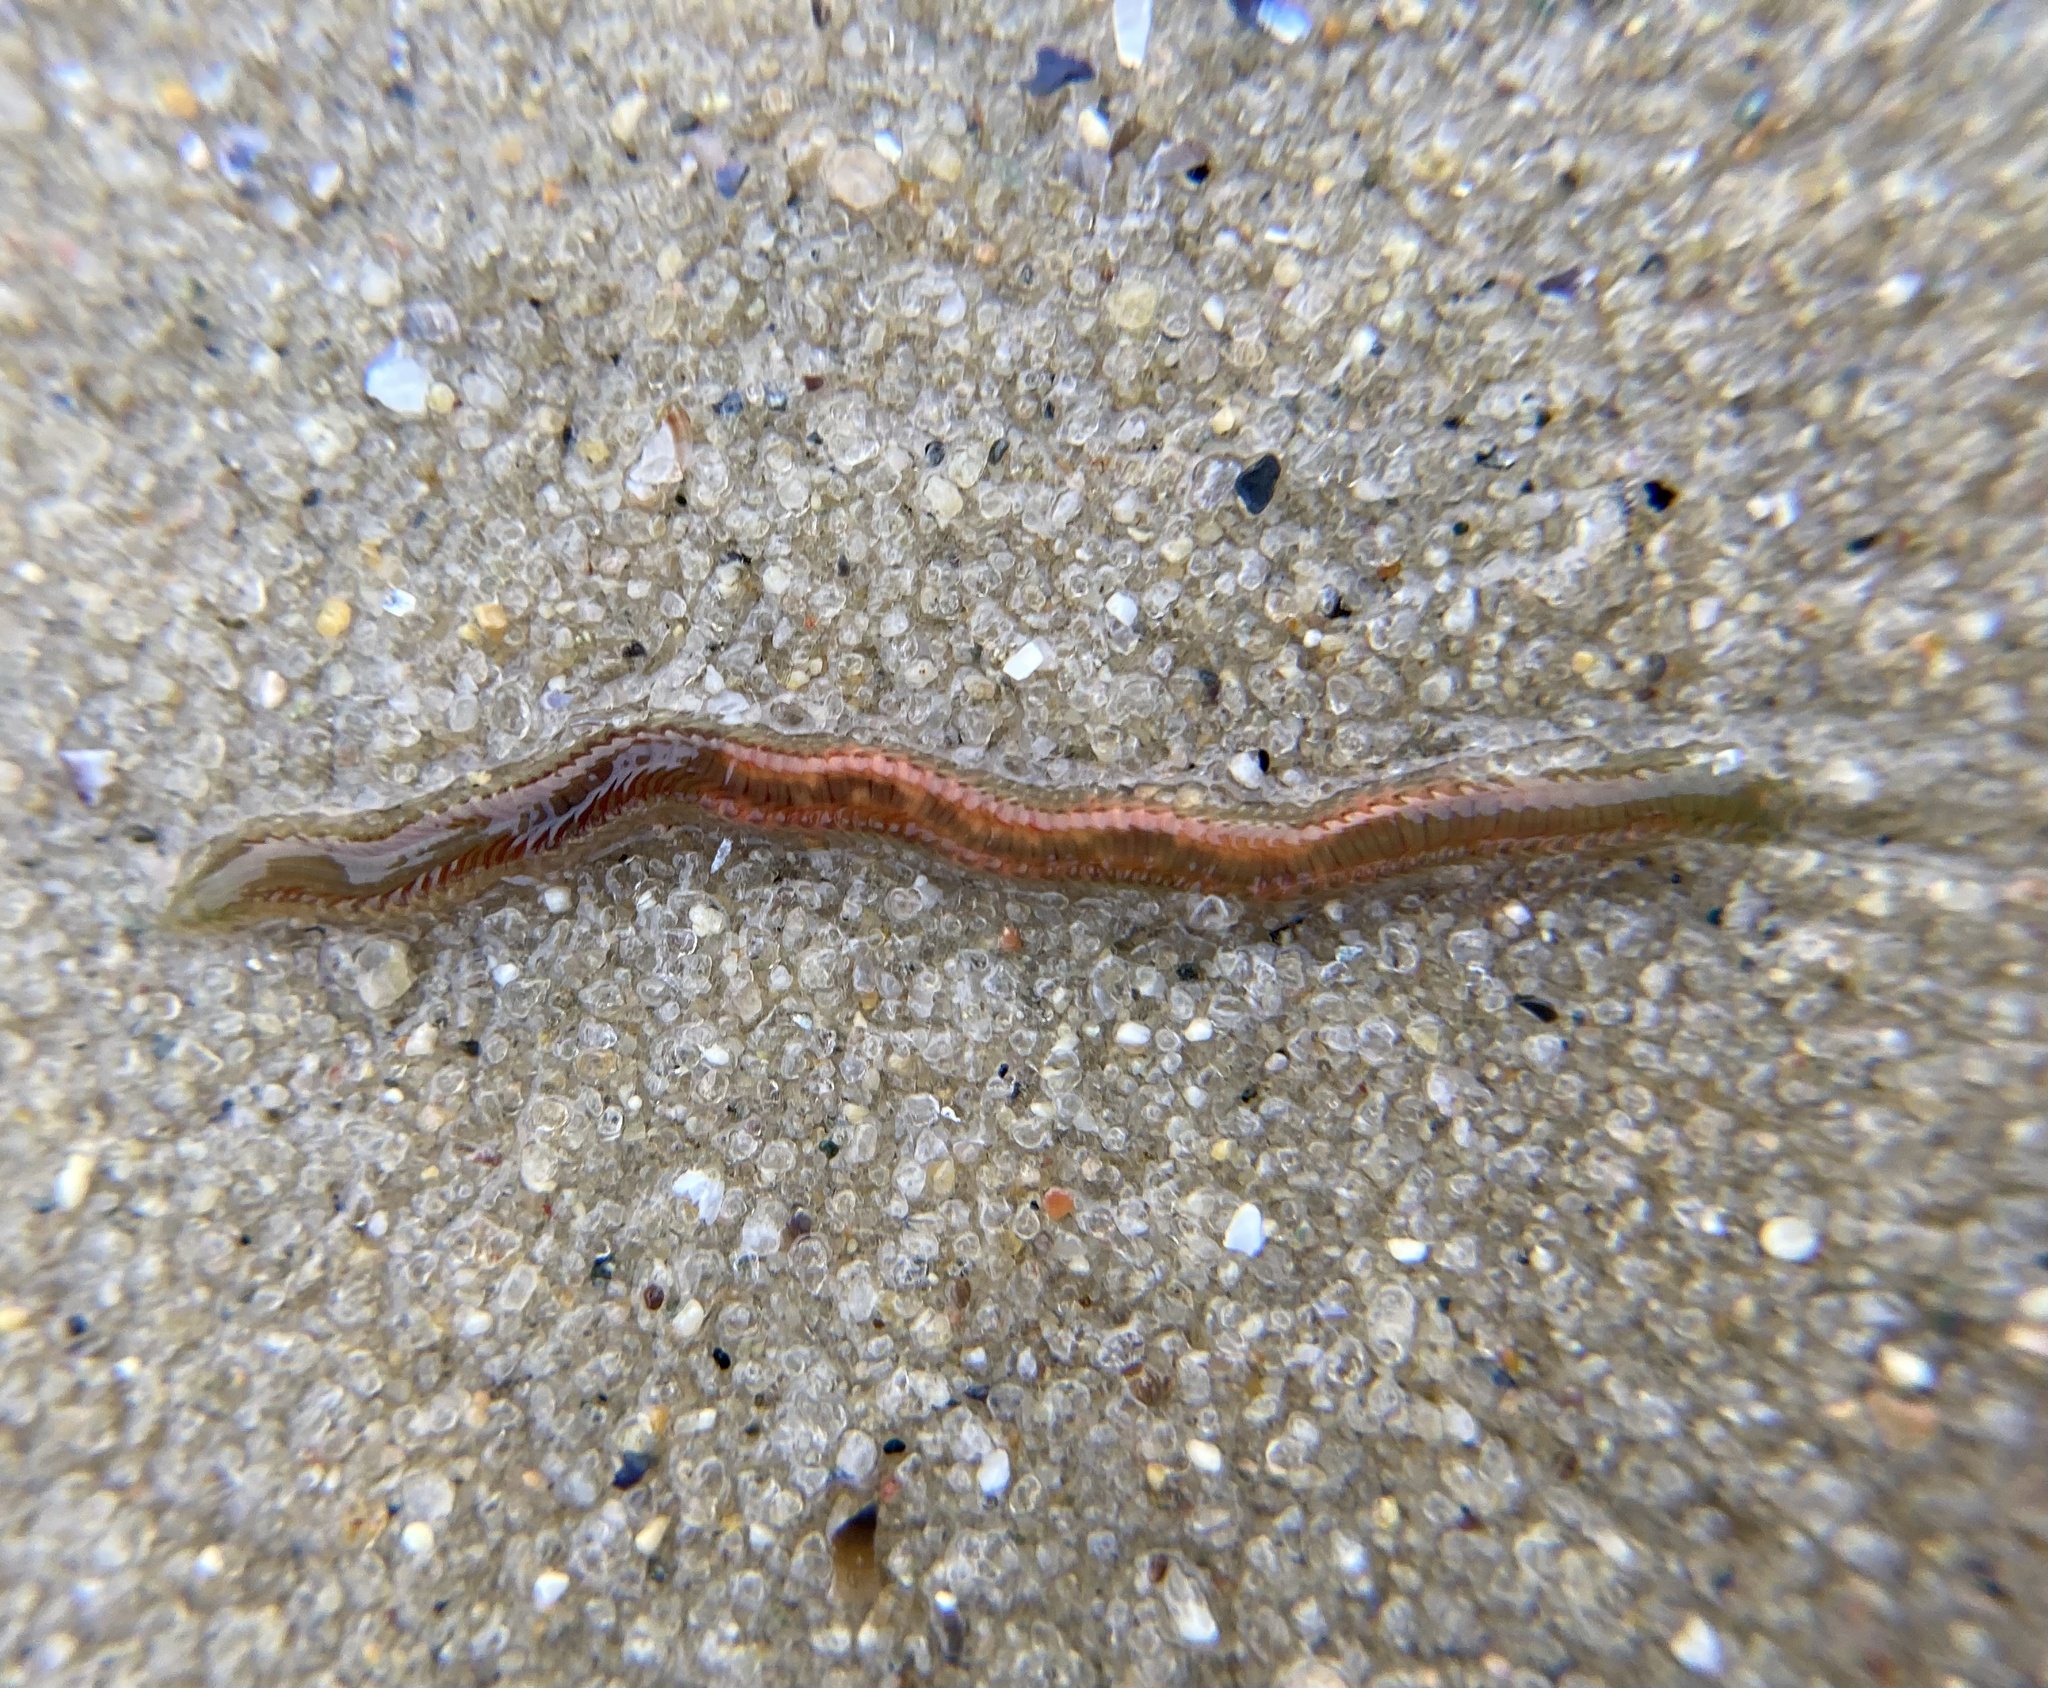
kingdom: Animalia
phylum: Annelida
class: Polychaeta
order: Phyllodocida
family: Nereididae
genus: Alitta
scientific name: Alitta succinea
